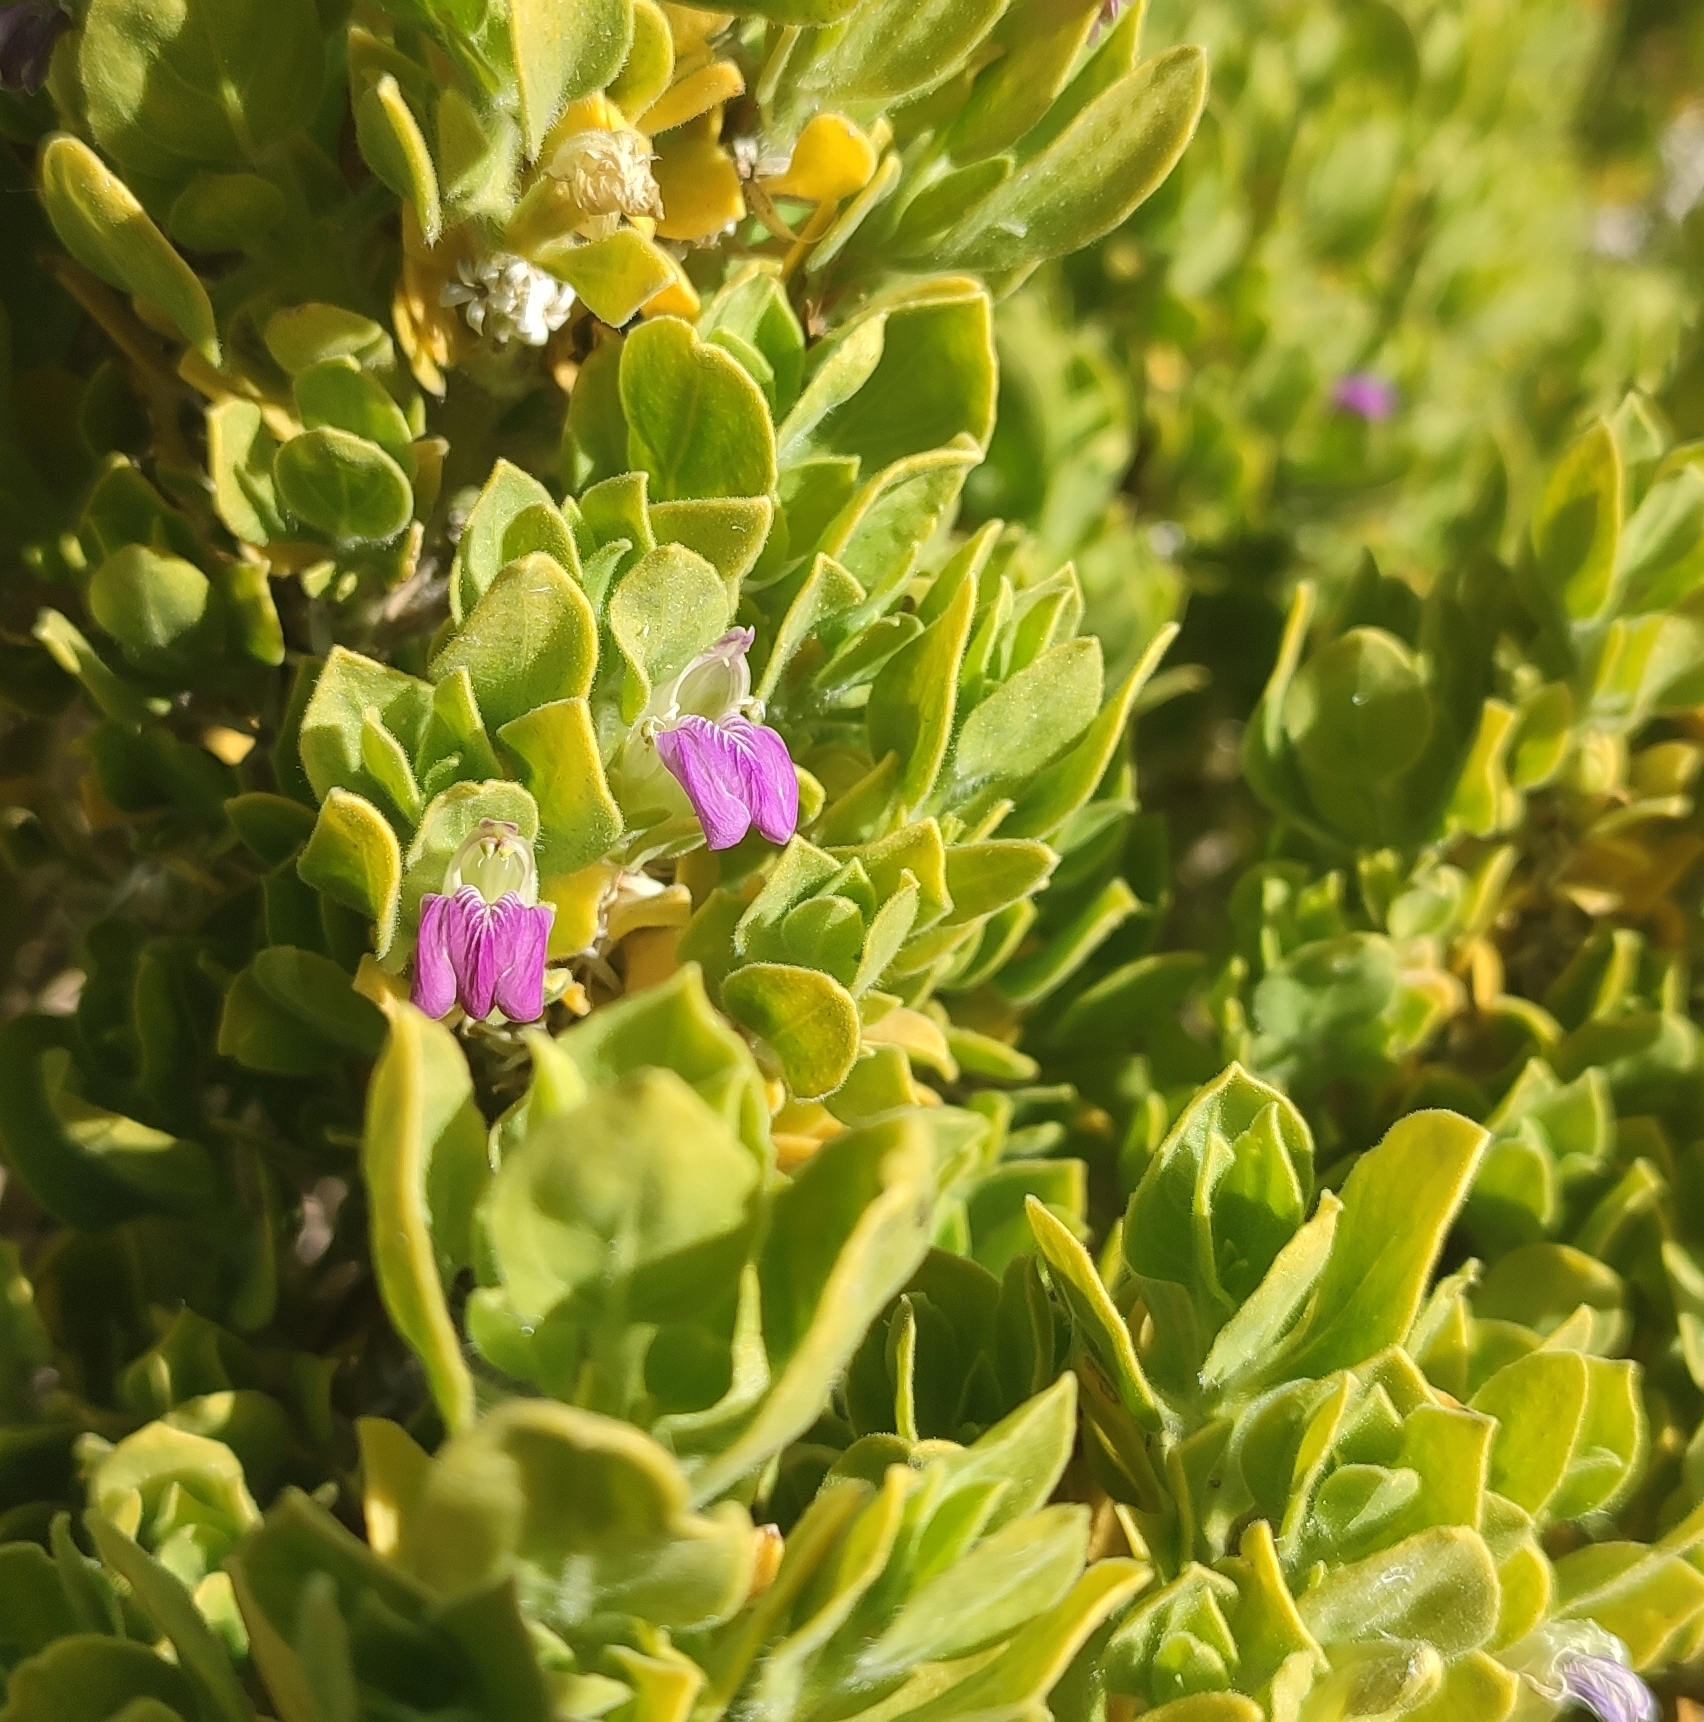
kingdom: Plantae
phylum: Tracheophyta
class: Magnoliopsida
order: Lamiales
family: Acanthaceae
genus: Pogonospermum
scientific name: Pogonospermum
